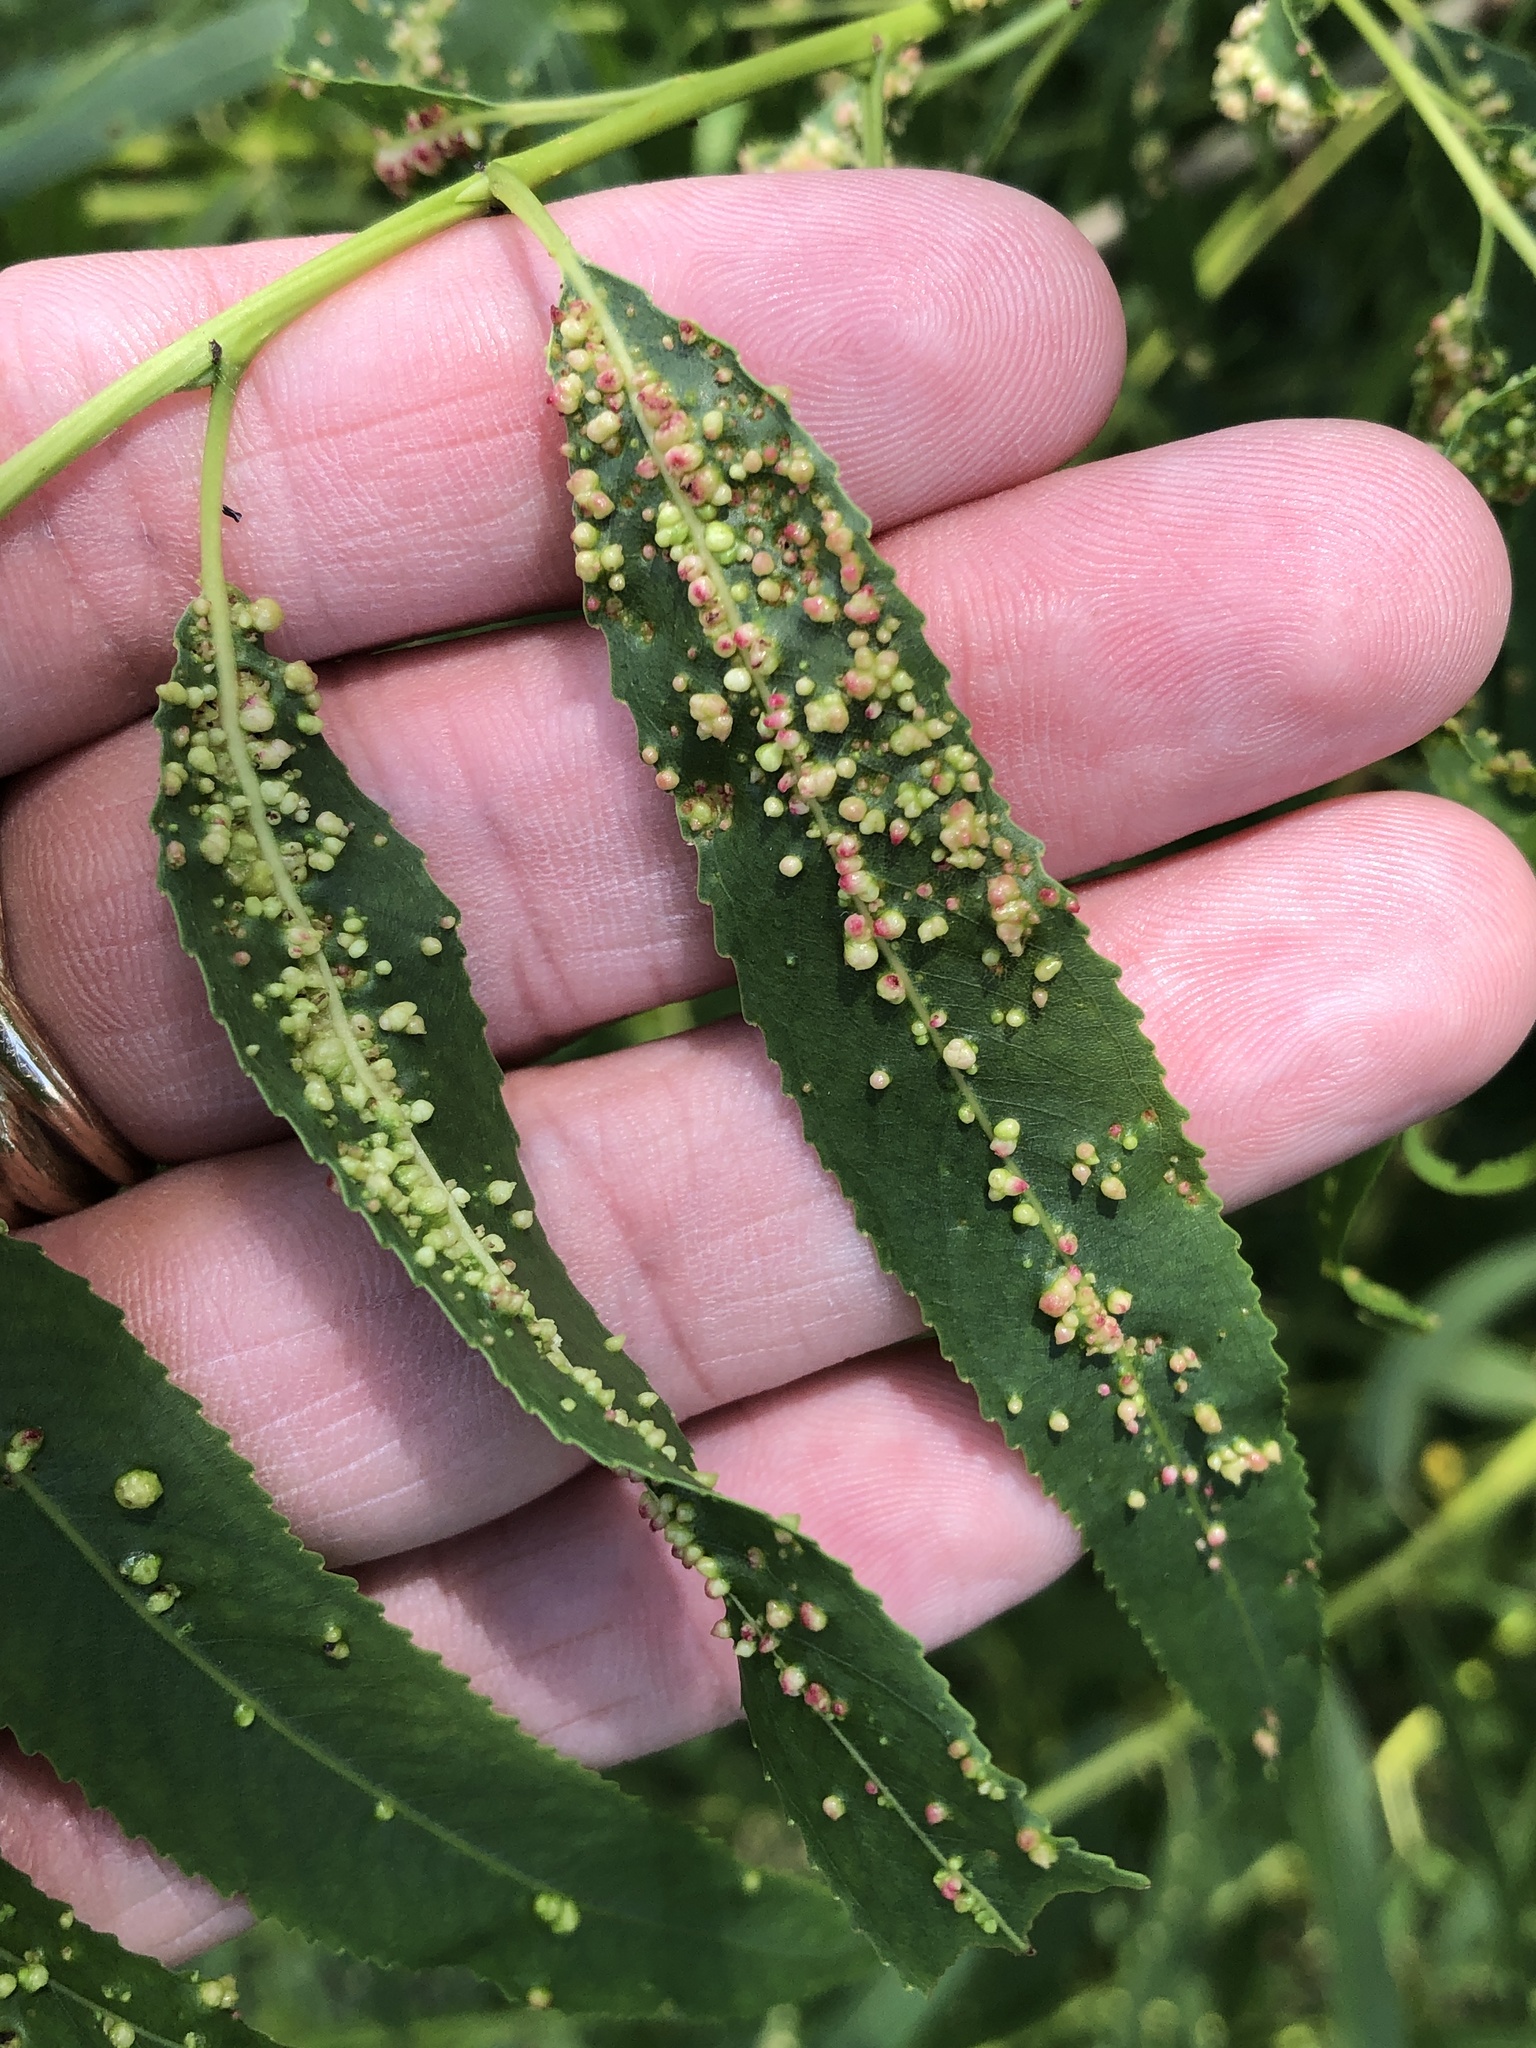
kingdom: Animalia
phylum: Arthropoda
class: Arachnida
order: Trombidiformes
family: Eriophyidae
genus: Aculus
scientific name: Aculus tetanothrix
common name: Willow bead gall mite
